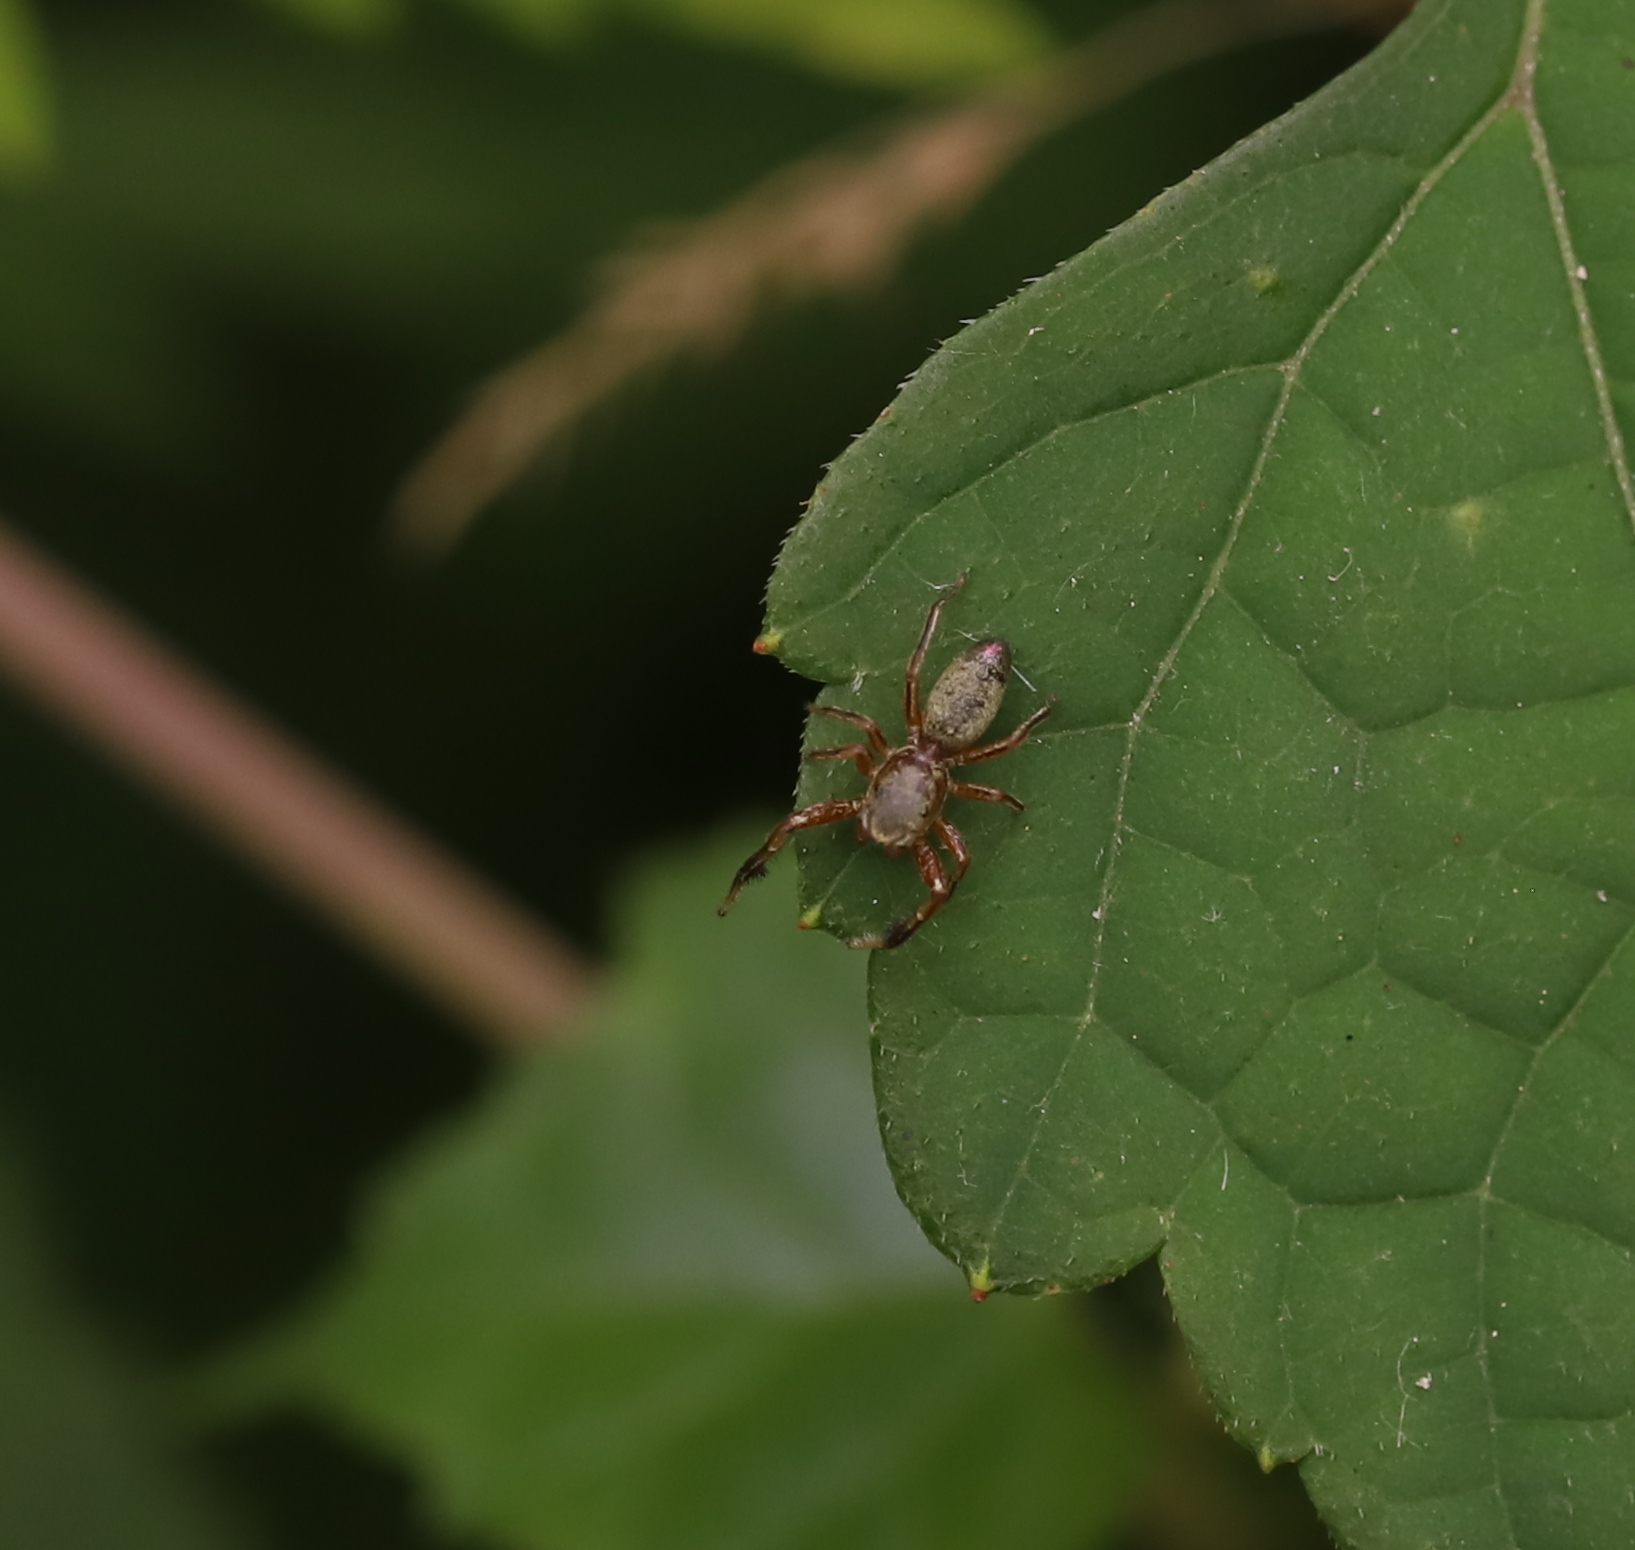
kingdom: Animalia
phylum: Arthropoda
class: Arachnida
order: Araneae
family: Salticidae
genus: Tutelina
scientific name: Tutelina elegans
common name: Thin-spined jumping spider
